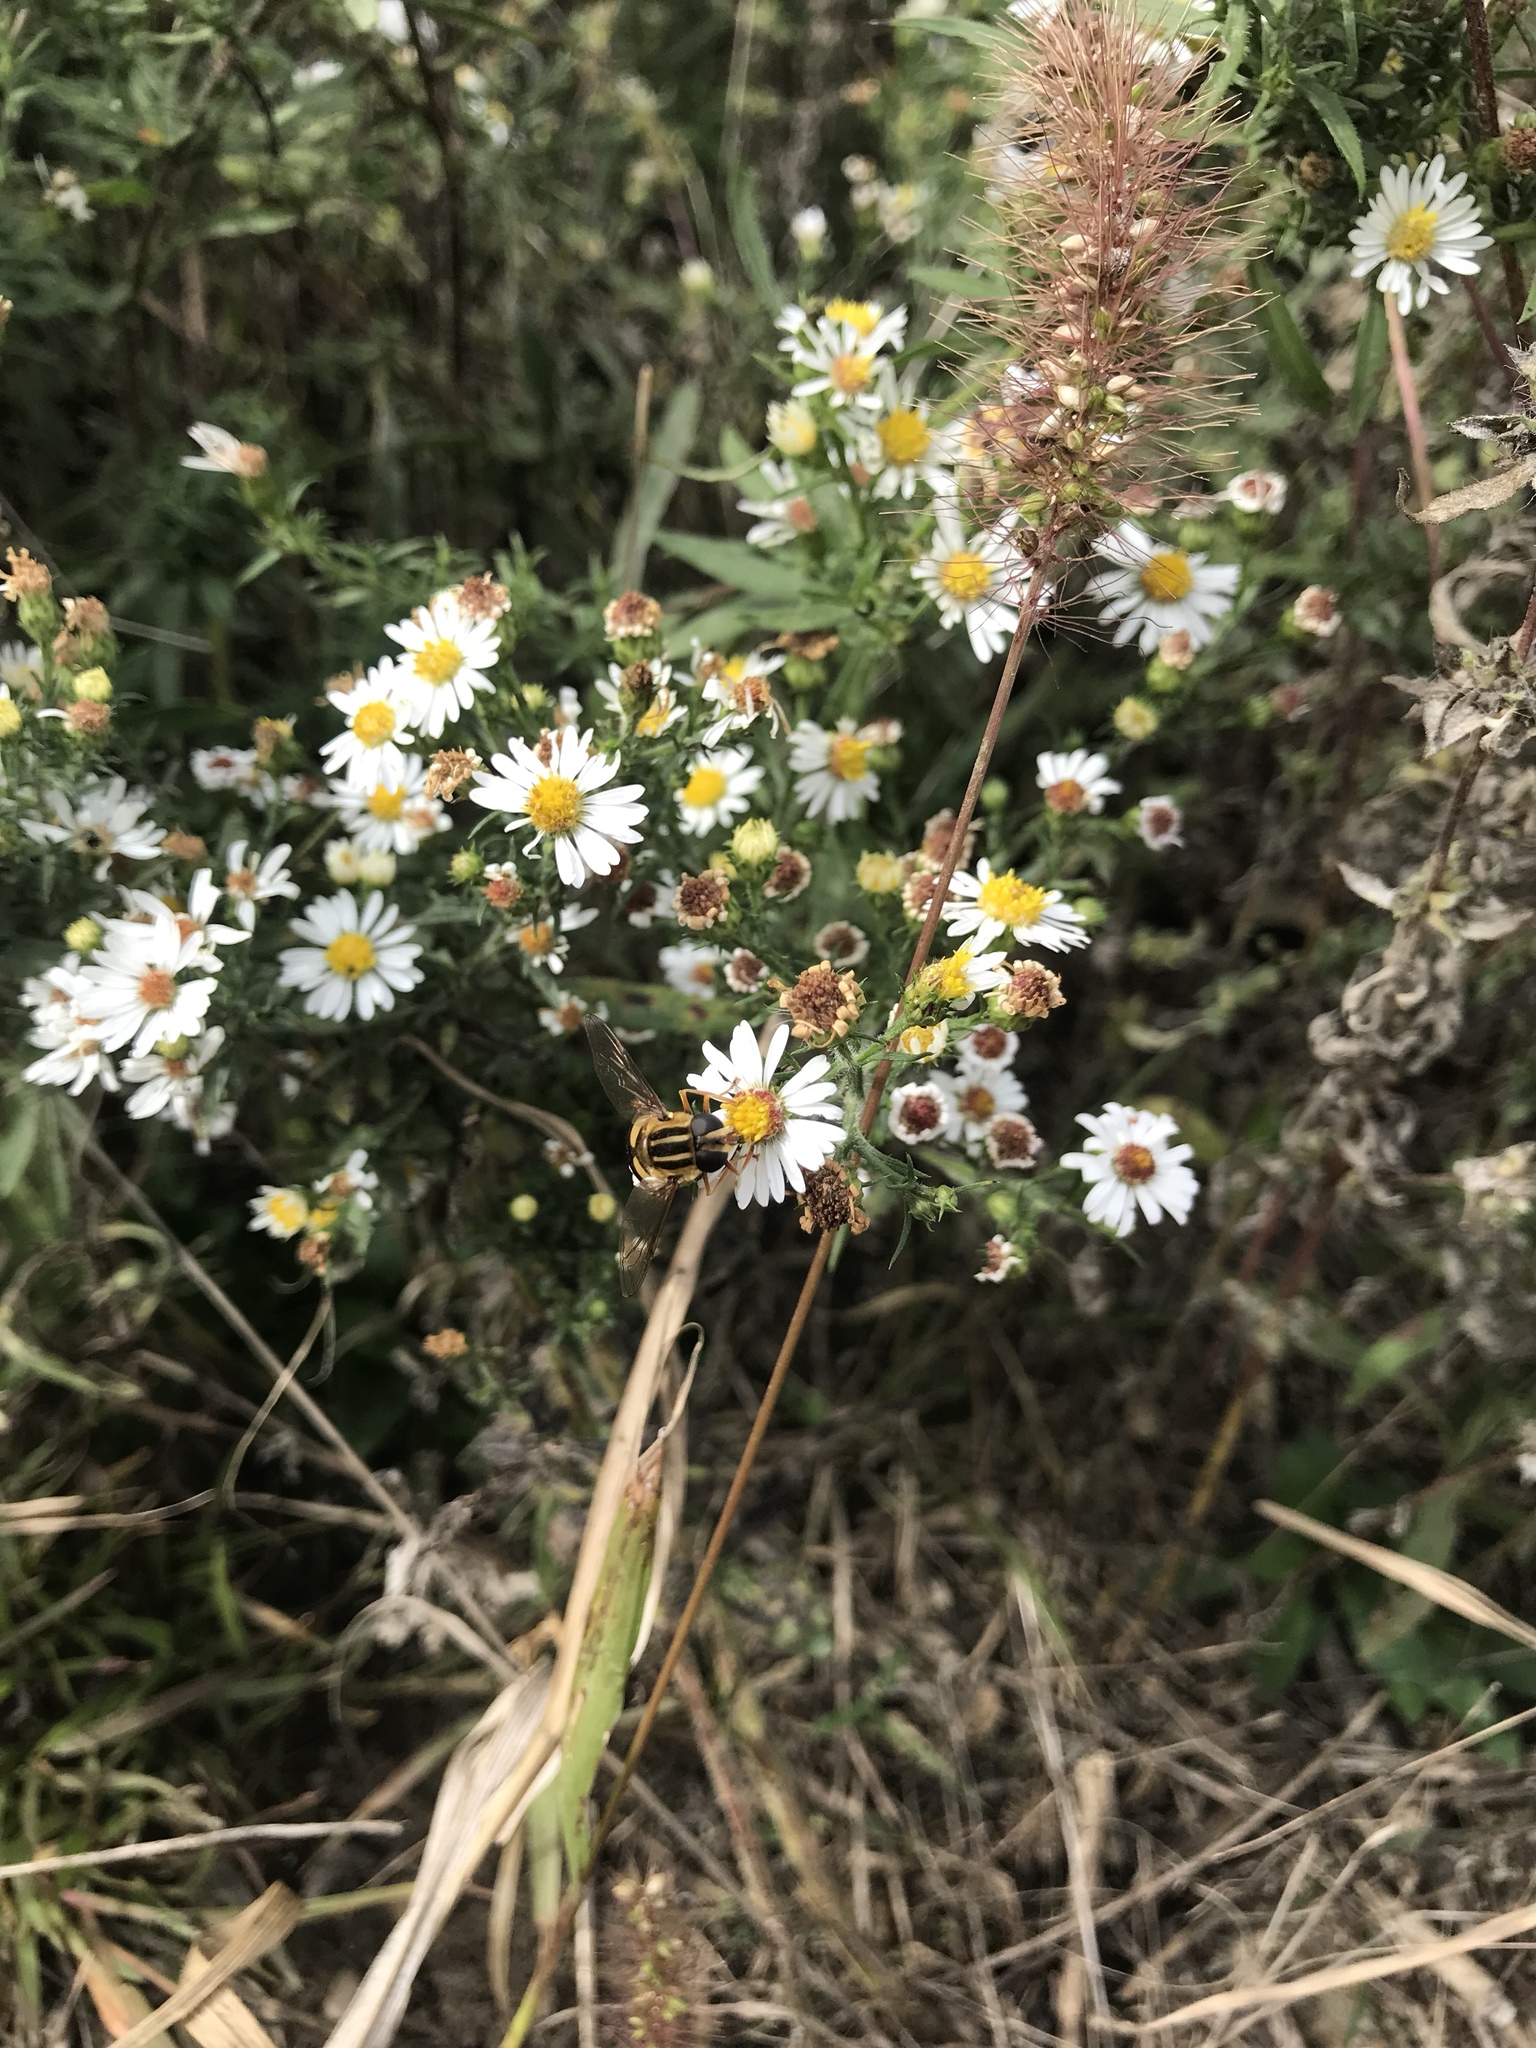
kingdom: Animalia
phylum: Arthropoda
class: Insecta
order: Diptera
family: Syrphidae
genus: Helophilus
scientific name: Helophilus fasciatus
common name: Narrow-headed marsh fly
